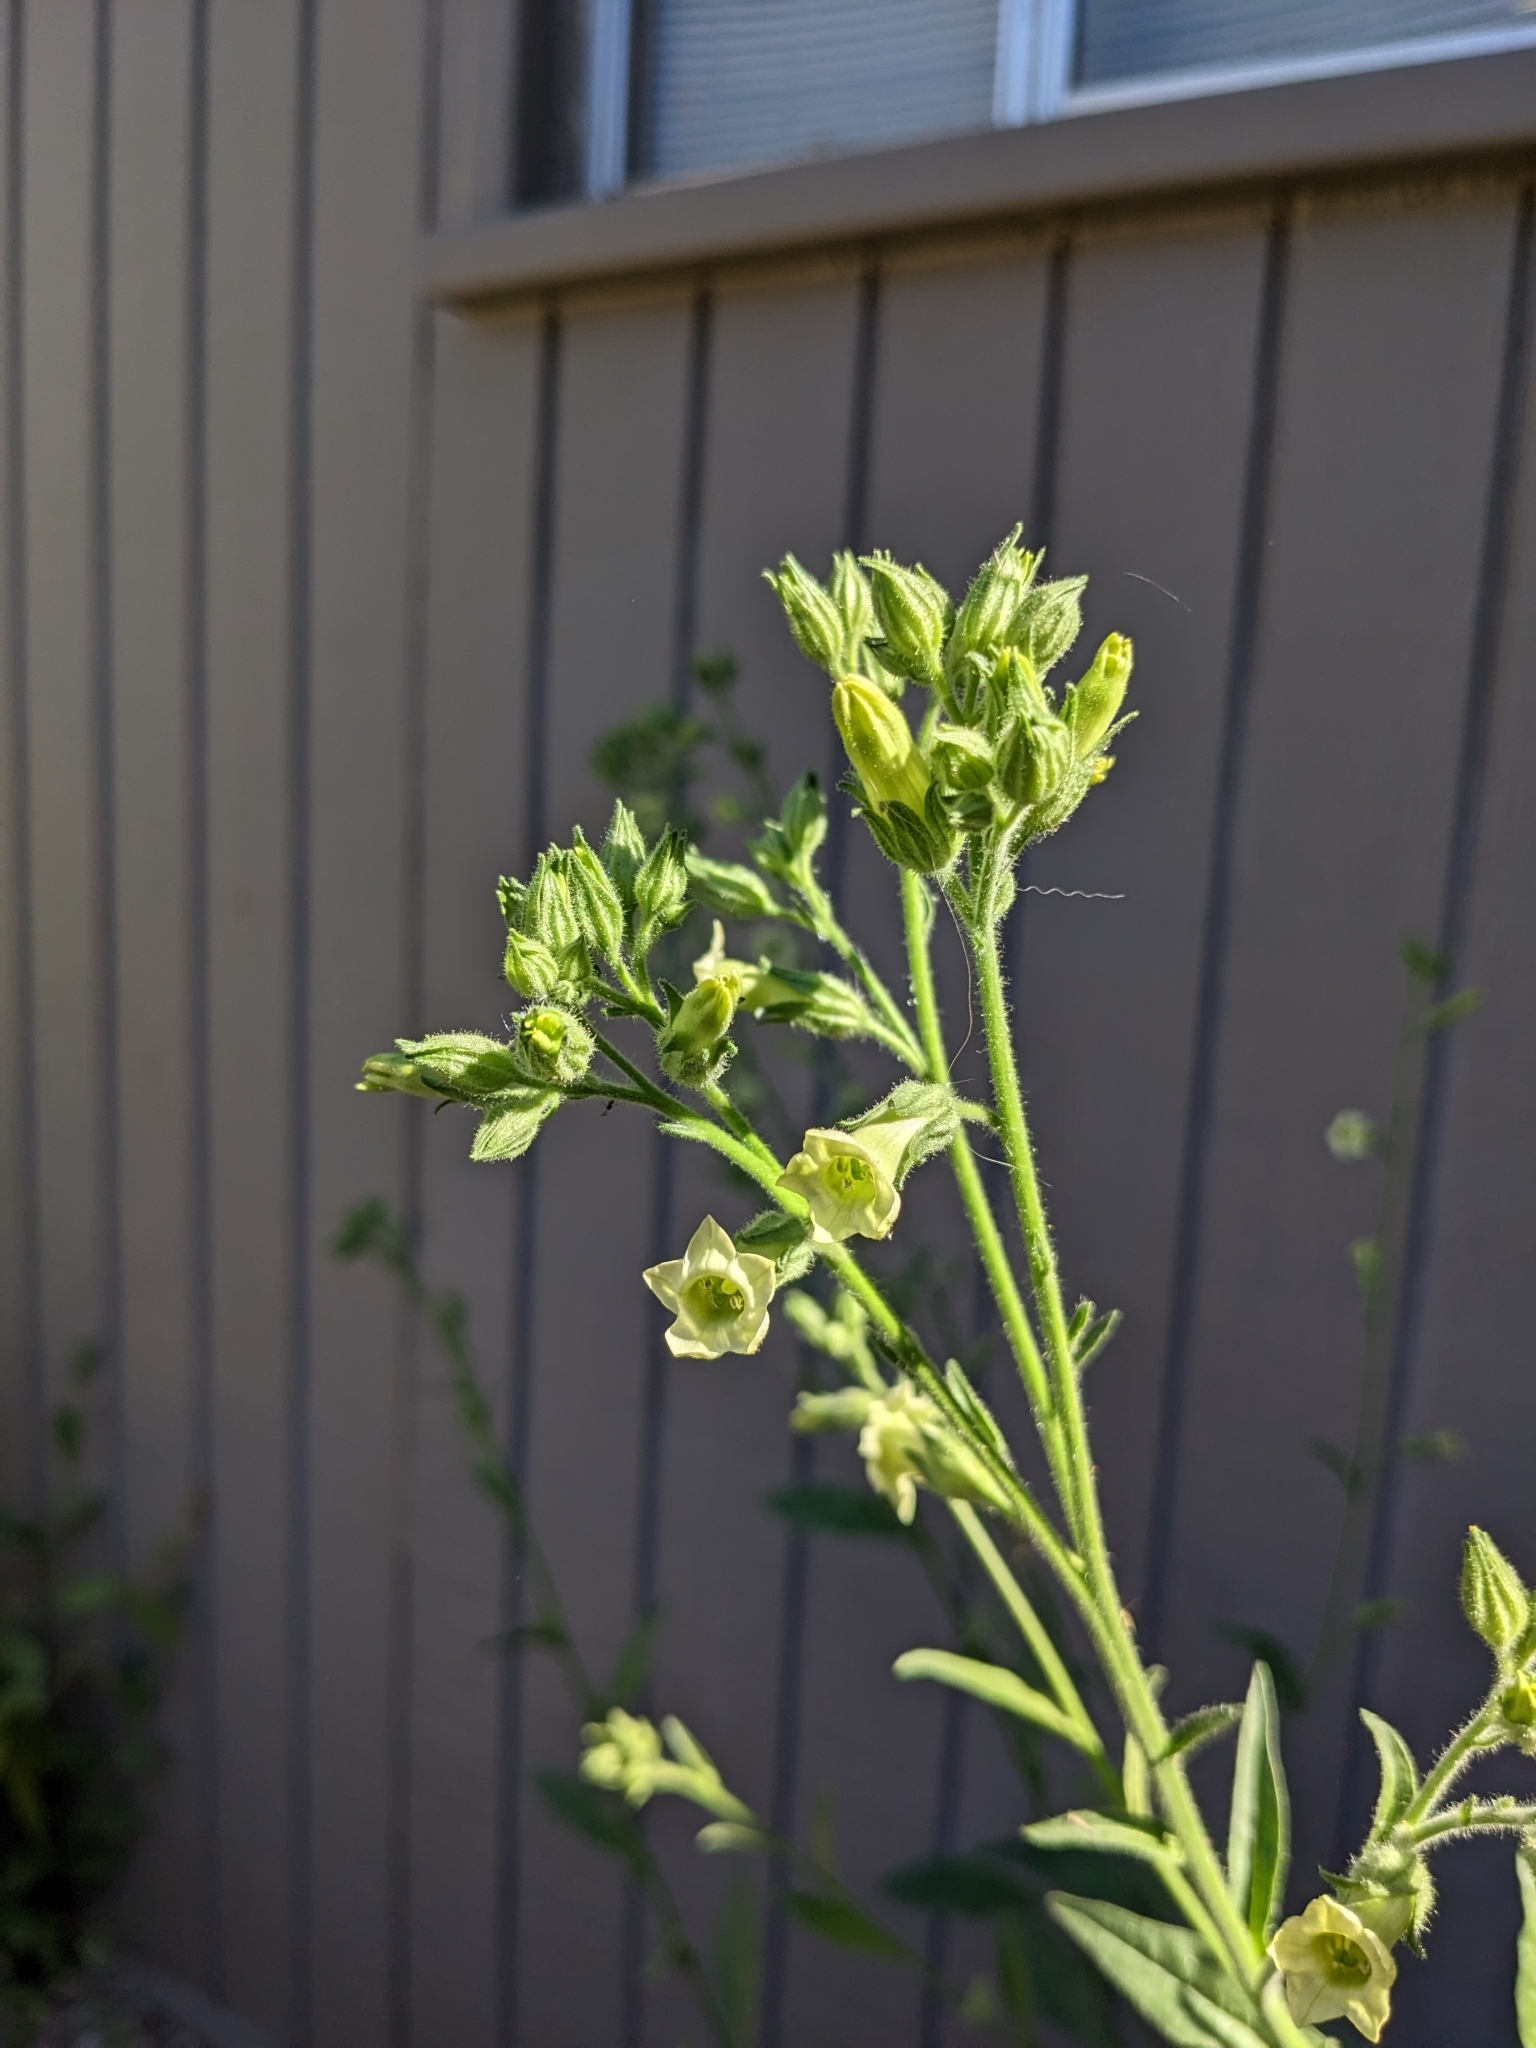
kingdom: Plantae
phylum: Tracheophyta
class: Magnoliopsida
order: Solanales
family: Solanaceae
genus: Nicotiana
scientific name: Nicotiana obtusifolia
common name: Desert tobacco
